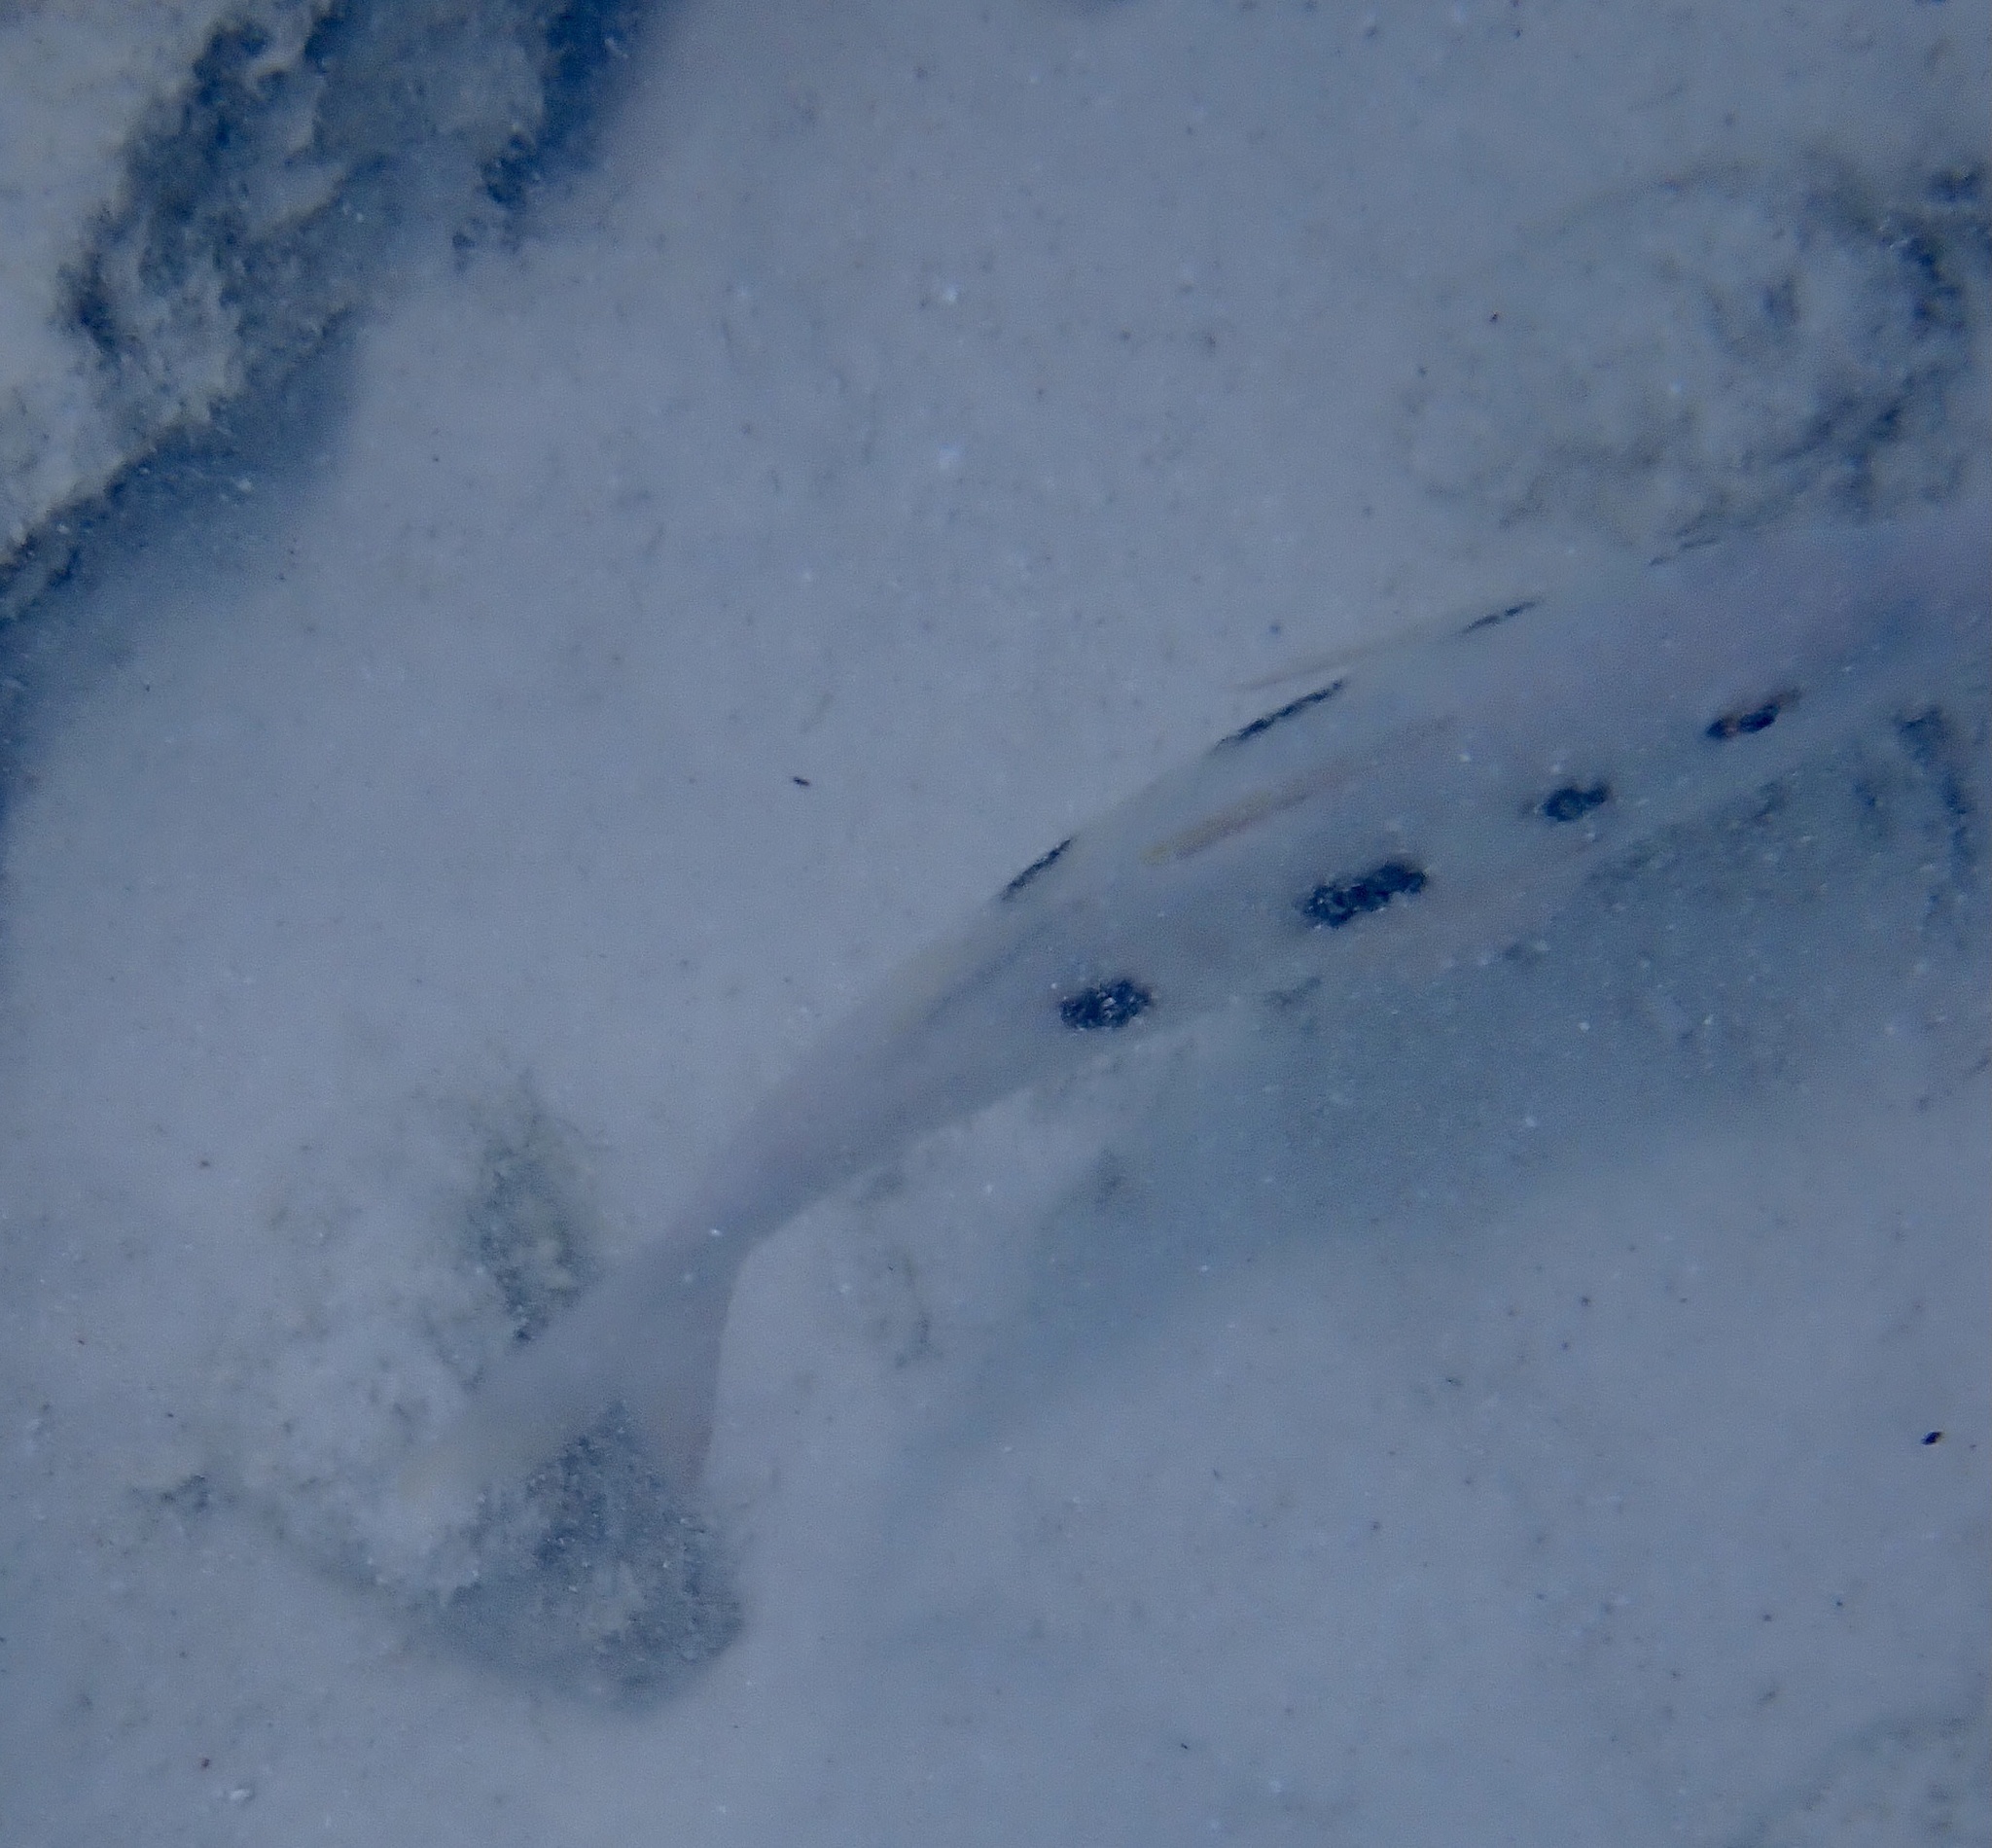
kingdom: Animalia
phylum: Chordata
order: Perciformes
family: Mullidae
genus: Pseudupeneus
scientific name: Pseudupeneus maculatus
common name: Spotted goatfish
